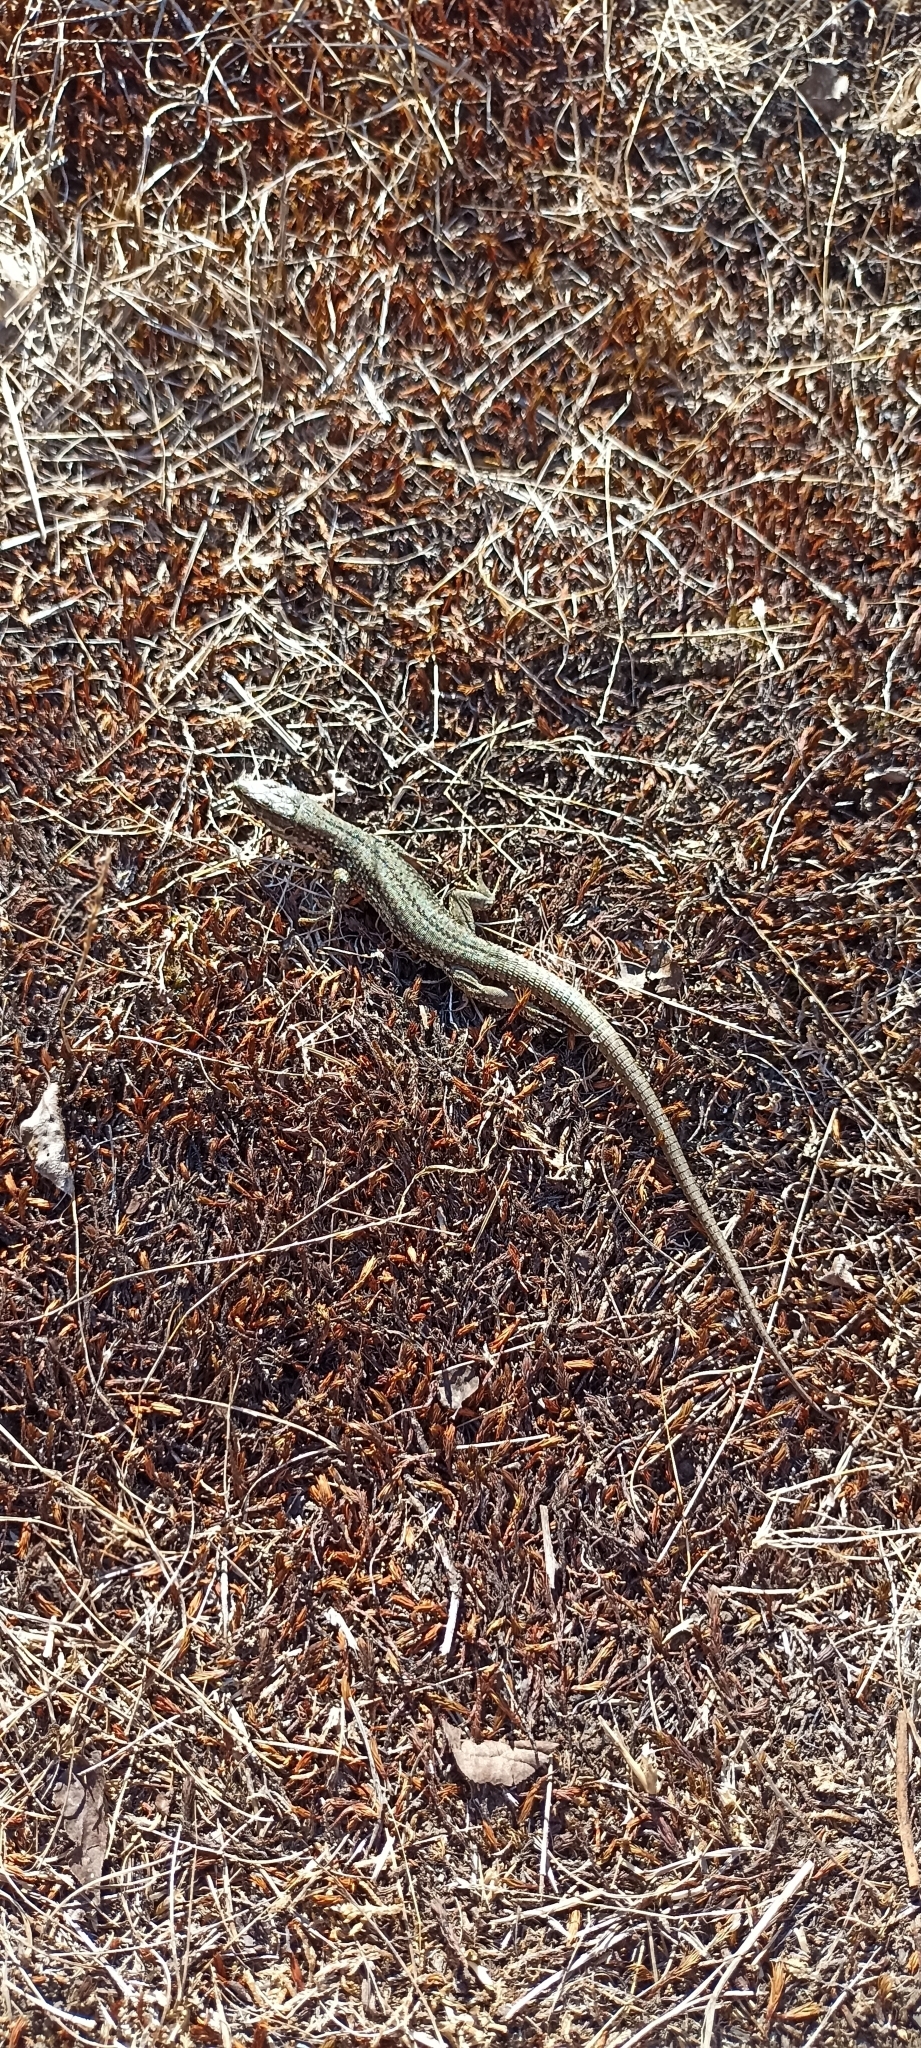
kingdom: Animalia
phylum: Chordata
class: Squamata
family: Lacertidae
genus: Podarcis
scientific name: Podarcis muralis
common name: Common wall lizard
